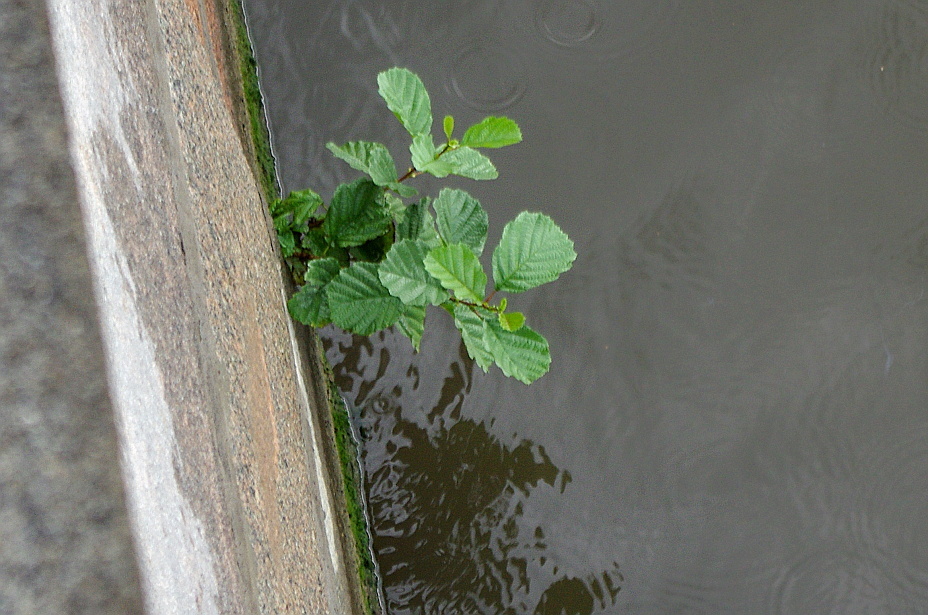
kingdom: Plantae
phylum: Tracheophyta
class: Magnoliopsida
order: Fagales
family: Betulaceae
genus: Alnus
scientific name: Alnus glutinosa
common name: Black alder
